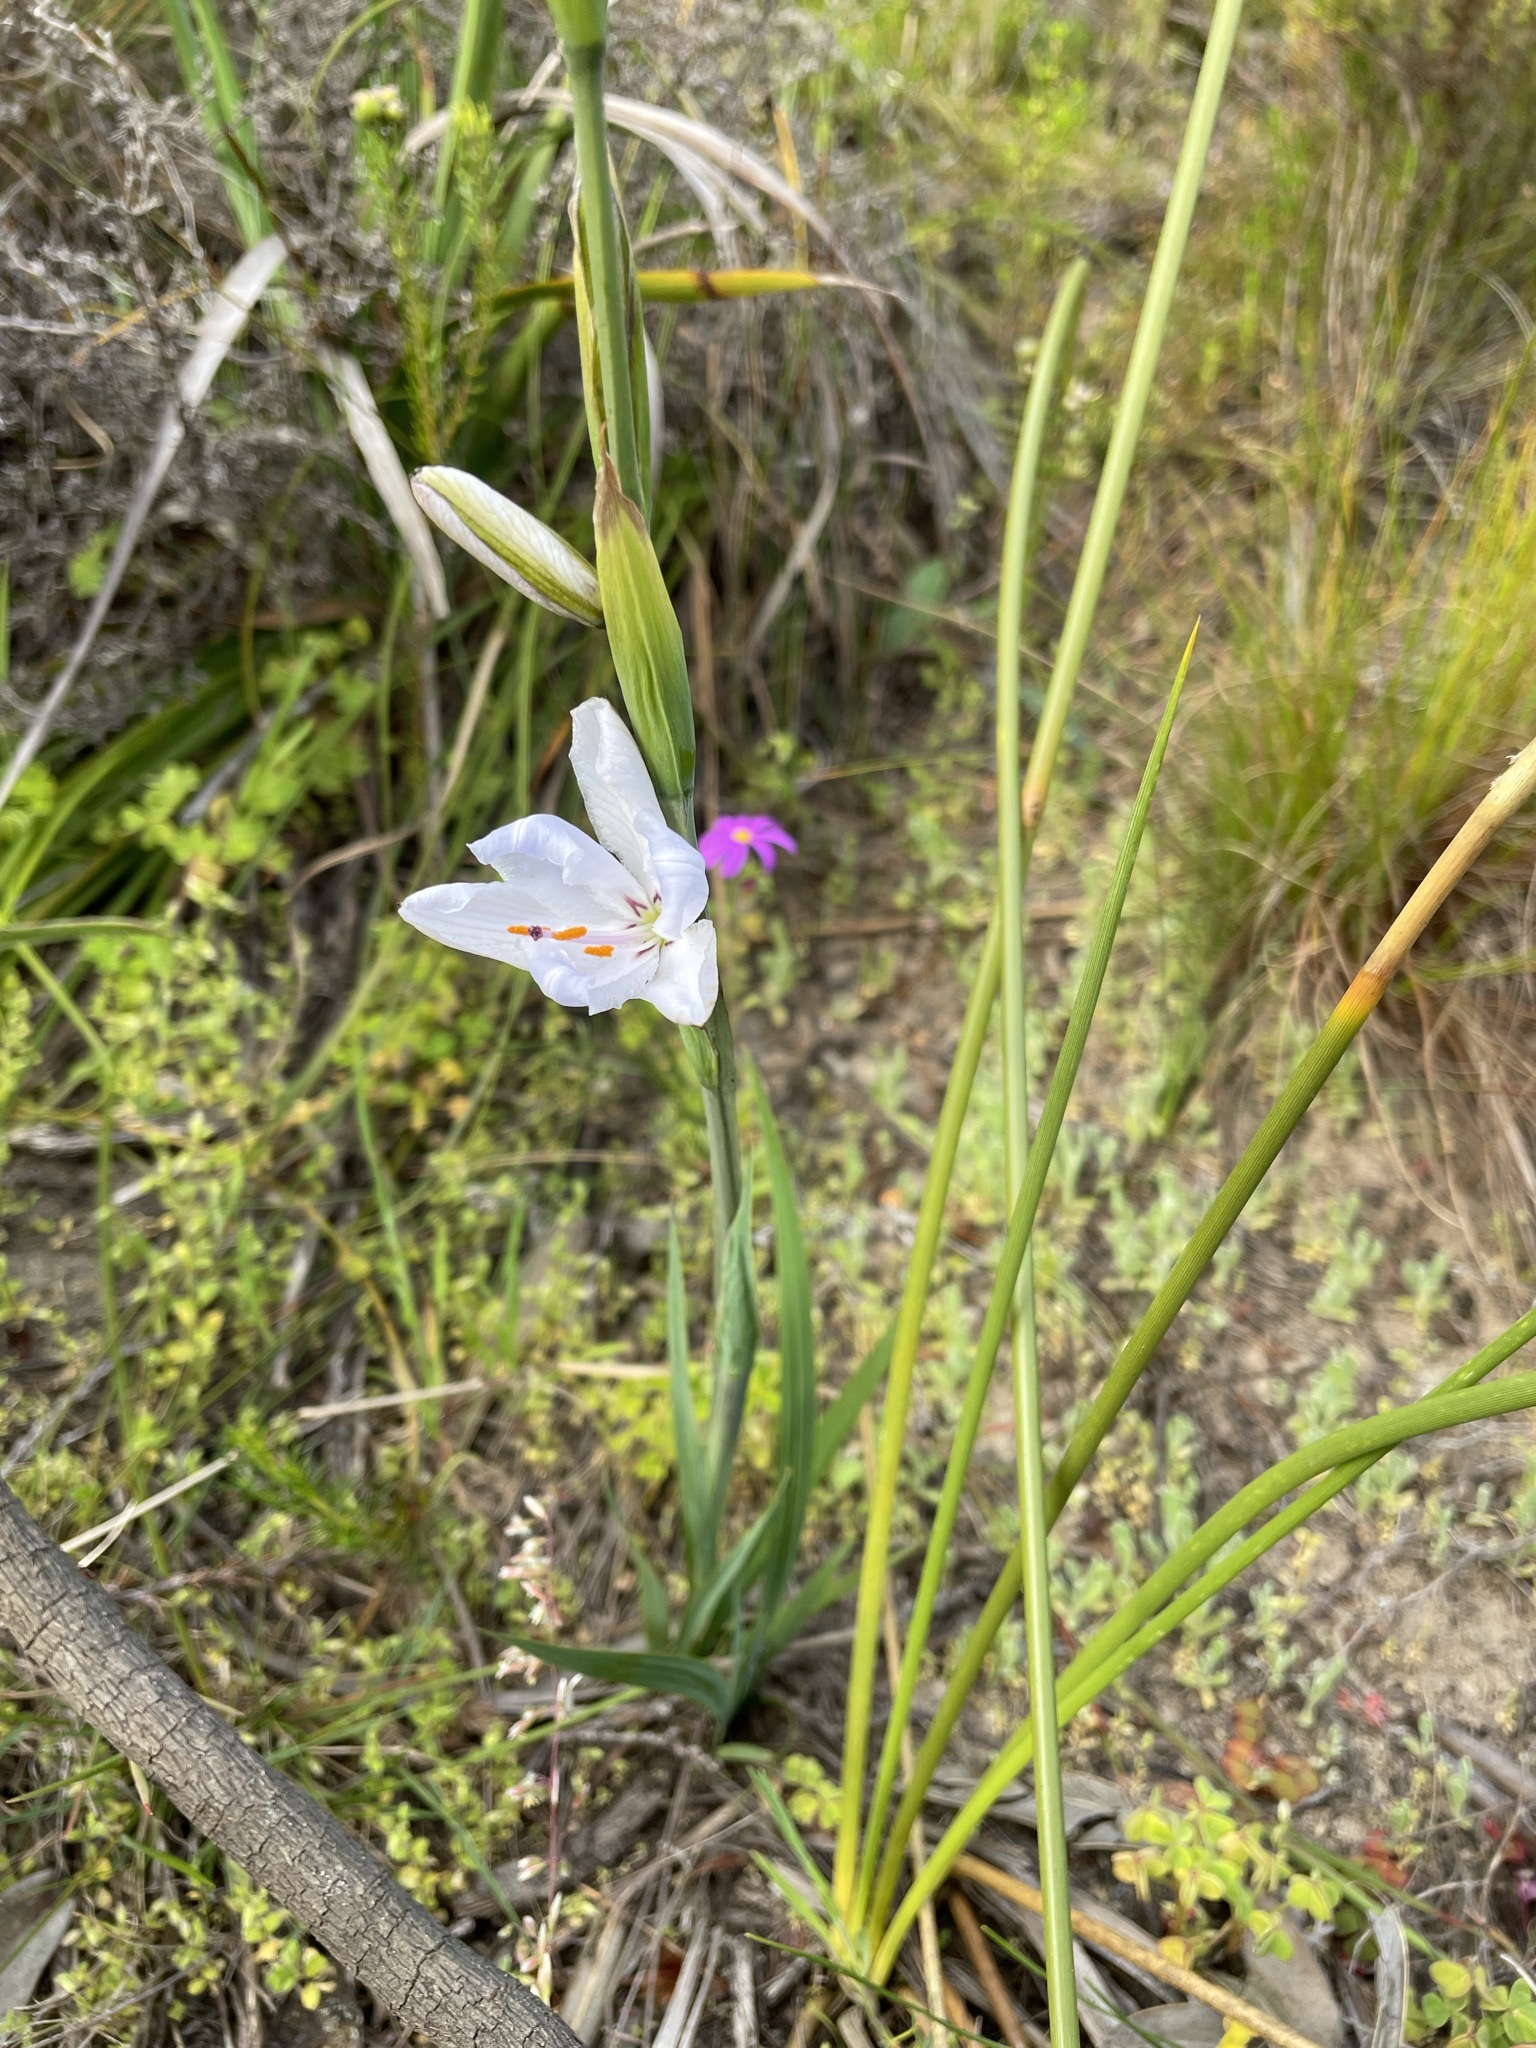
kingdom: Plantae
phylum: Tracheophyta
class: Liliopsida
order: Asparagales
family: Iridaceae
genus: Aristea
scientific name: Aristea spiralis
